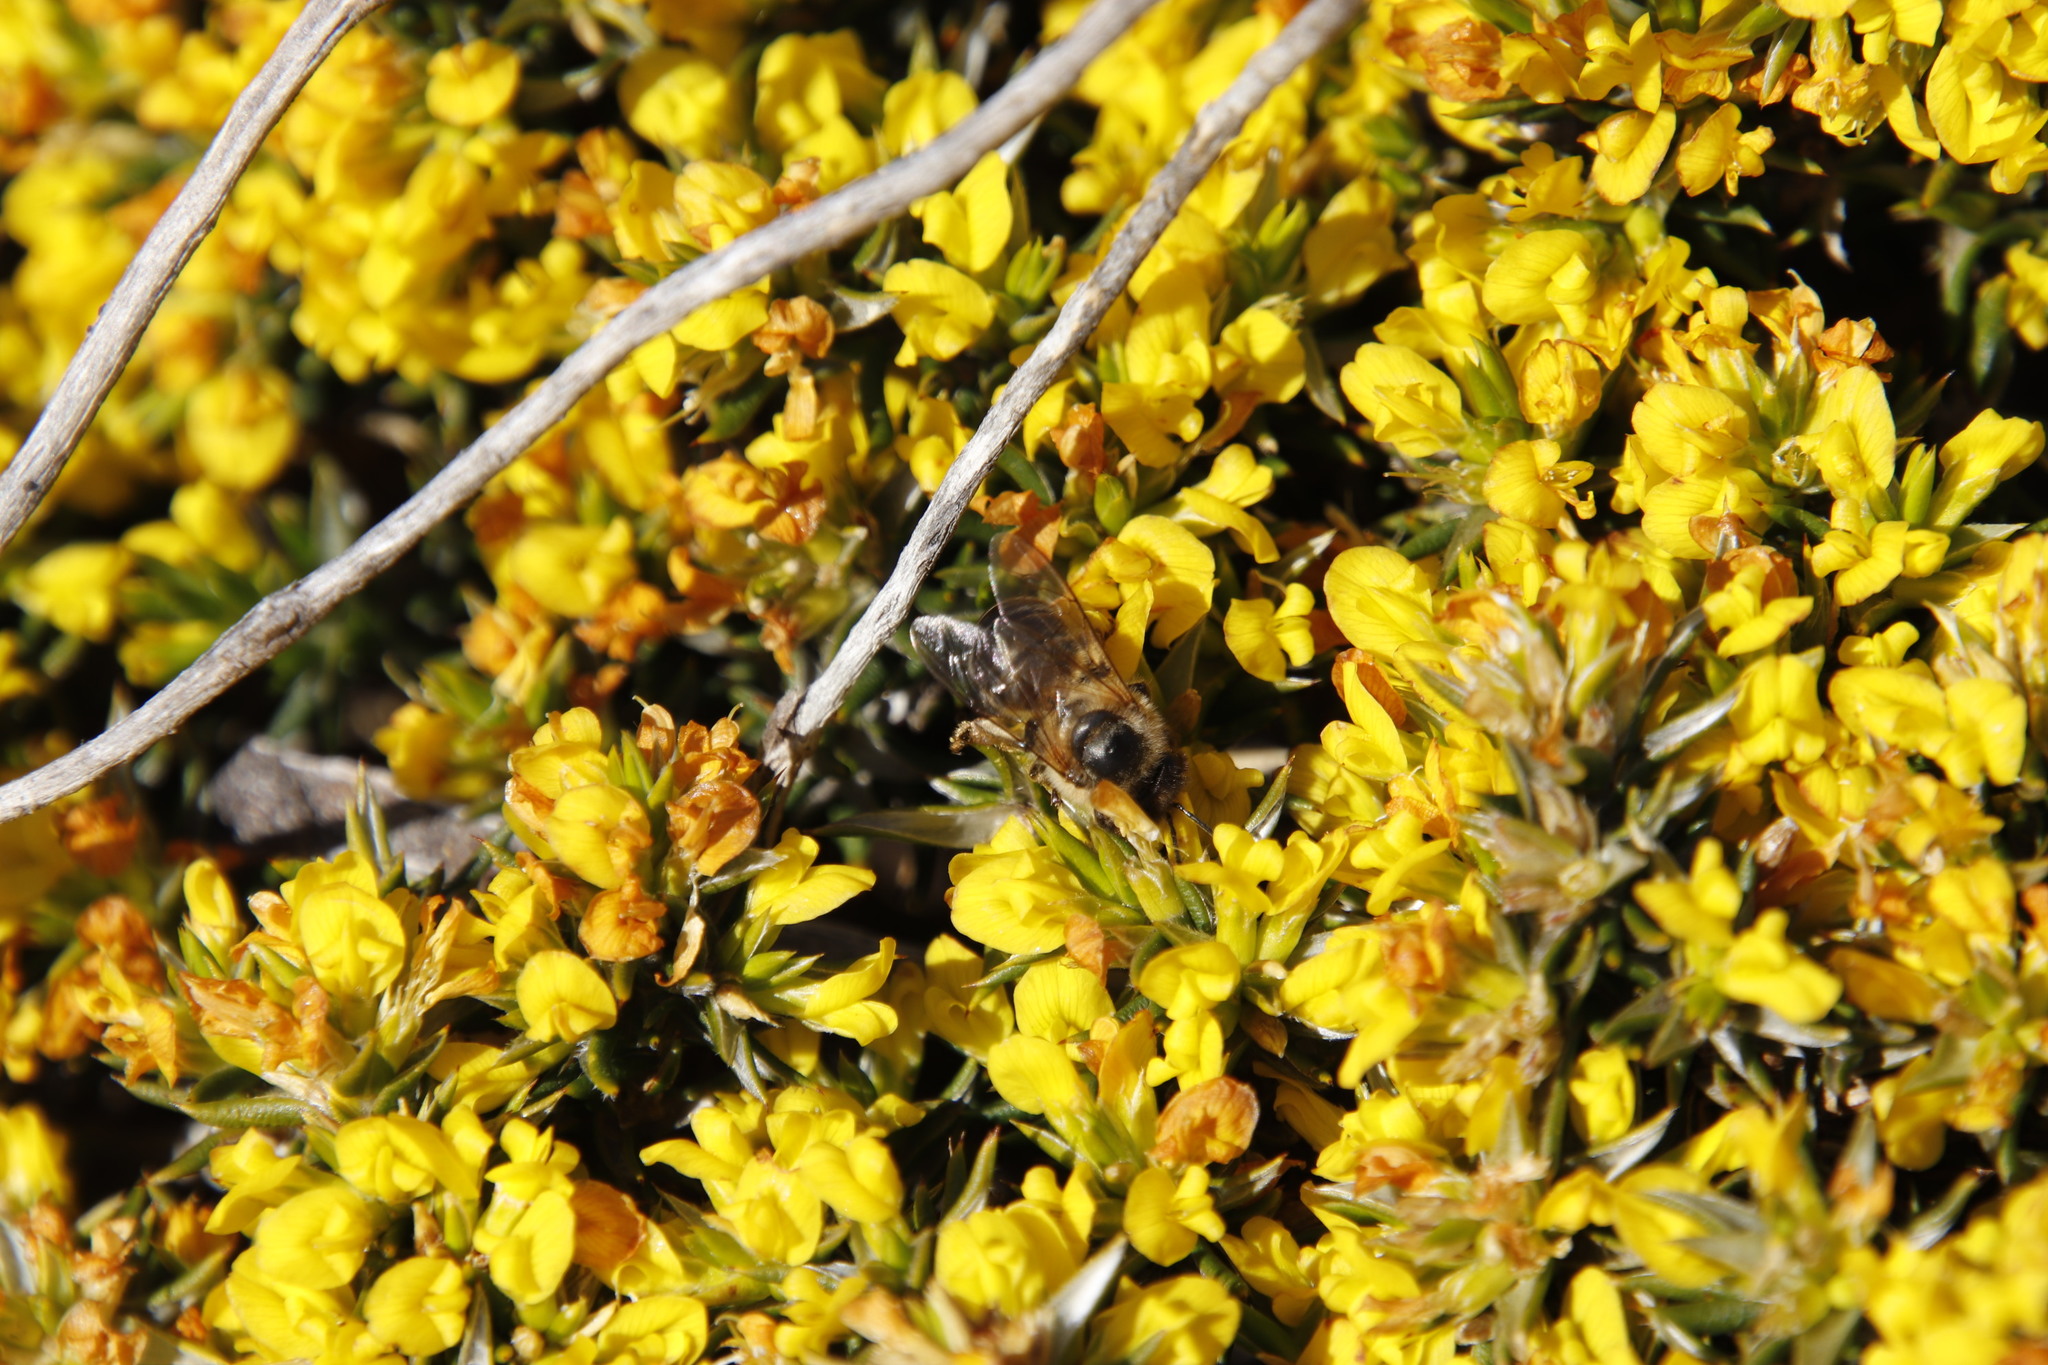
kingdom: Animalia
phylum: Arthropoda
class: Insecta
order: Hymenoptera
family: Apidae
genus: Apis
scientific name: Apis mellifera
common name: Honey bee
